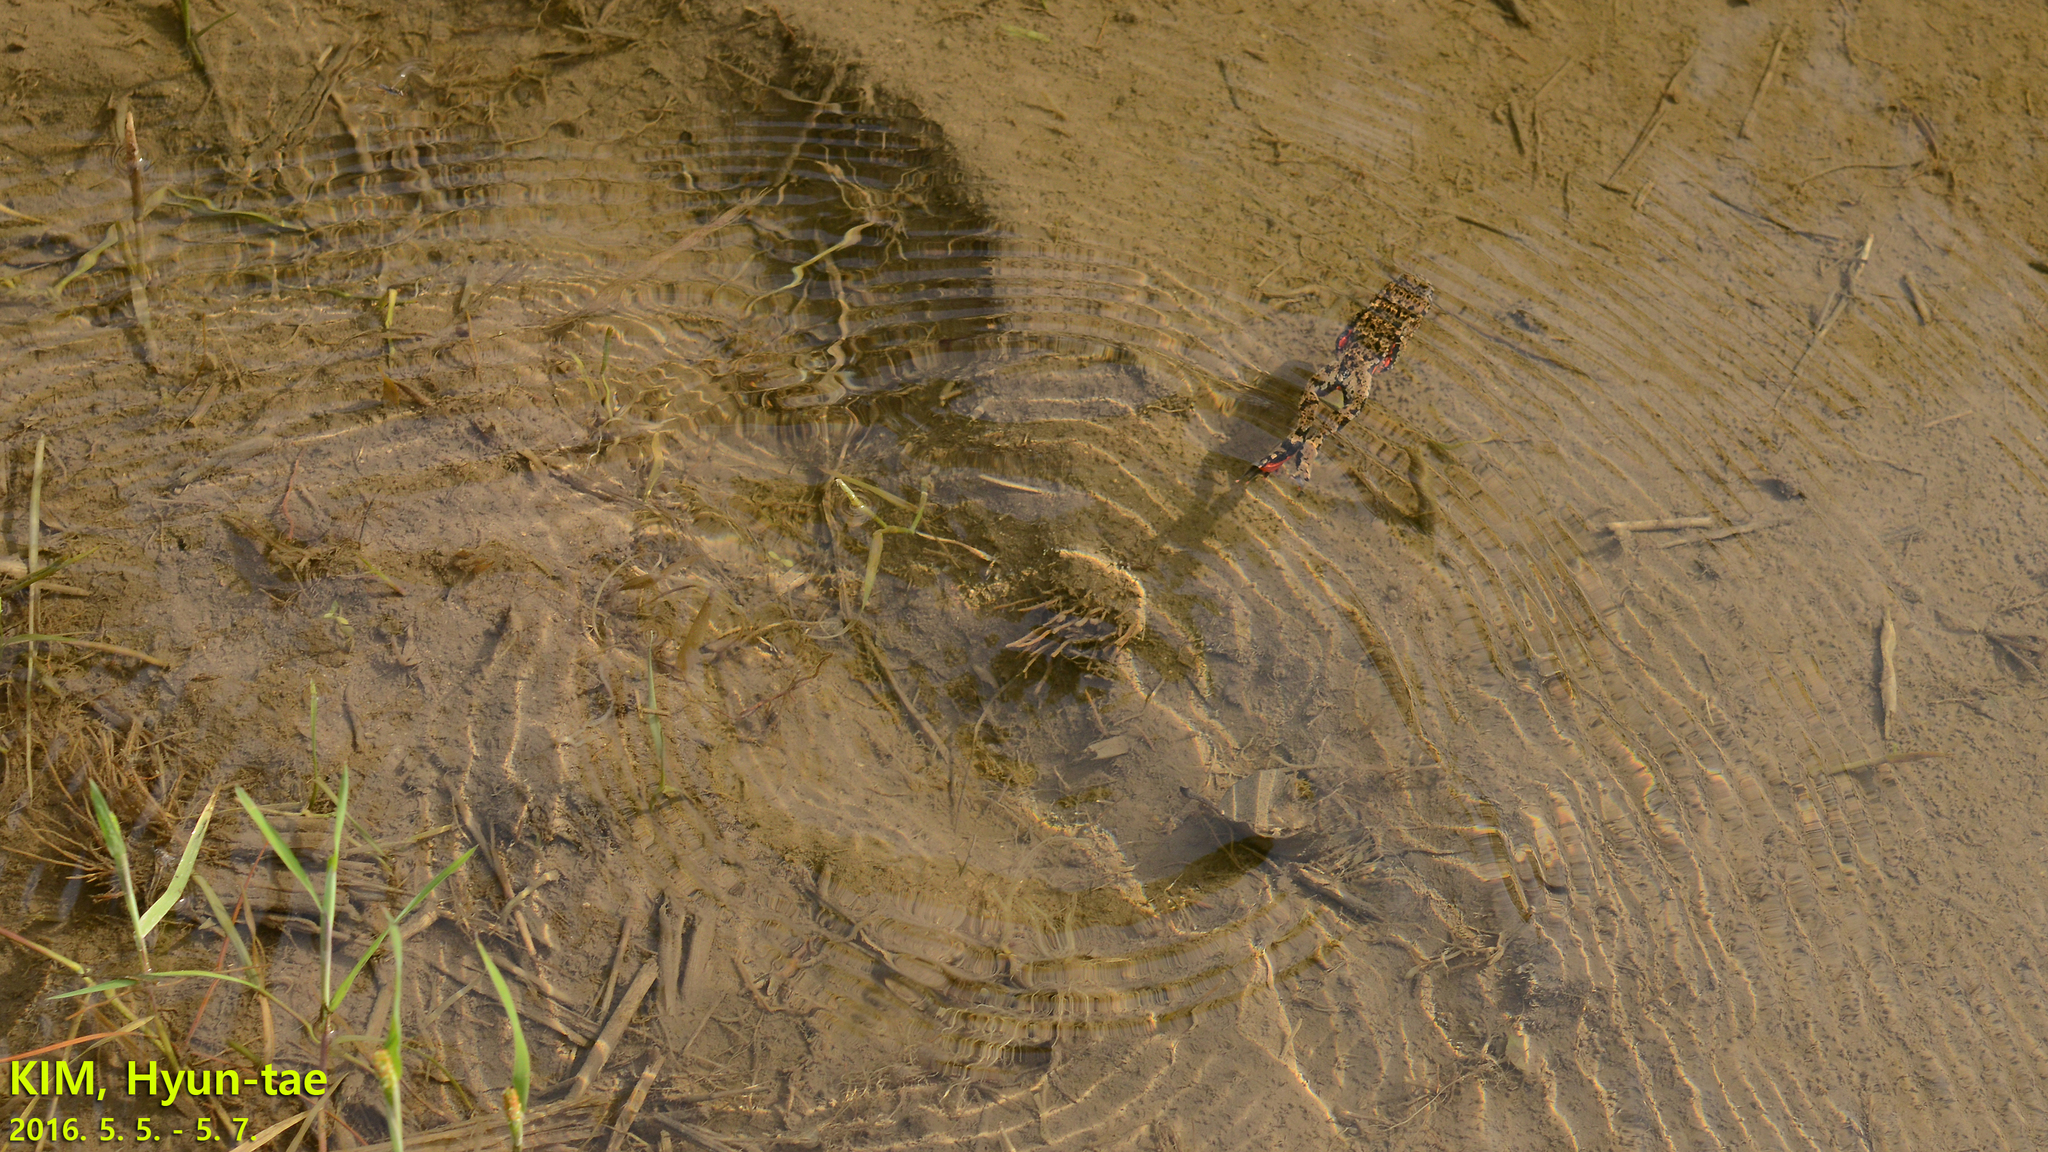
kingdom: Animalia
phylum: Chordata
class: Amphibia
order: Anura
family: Bombinatoridae
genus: Bombina
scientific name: Bombina orientalis
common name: Oriental firebelly toad
